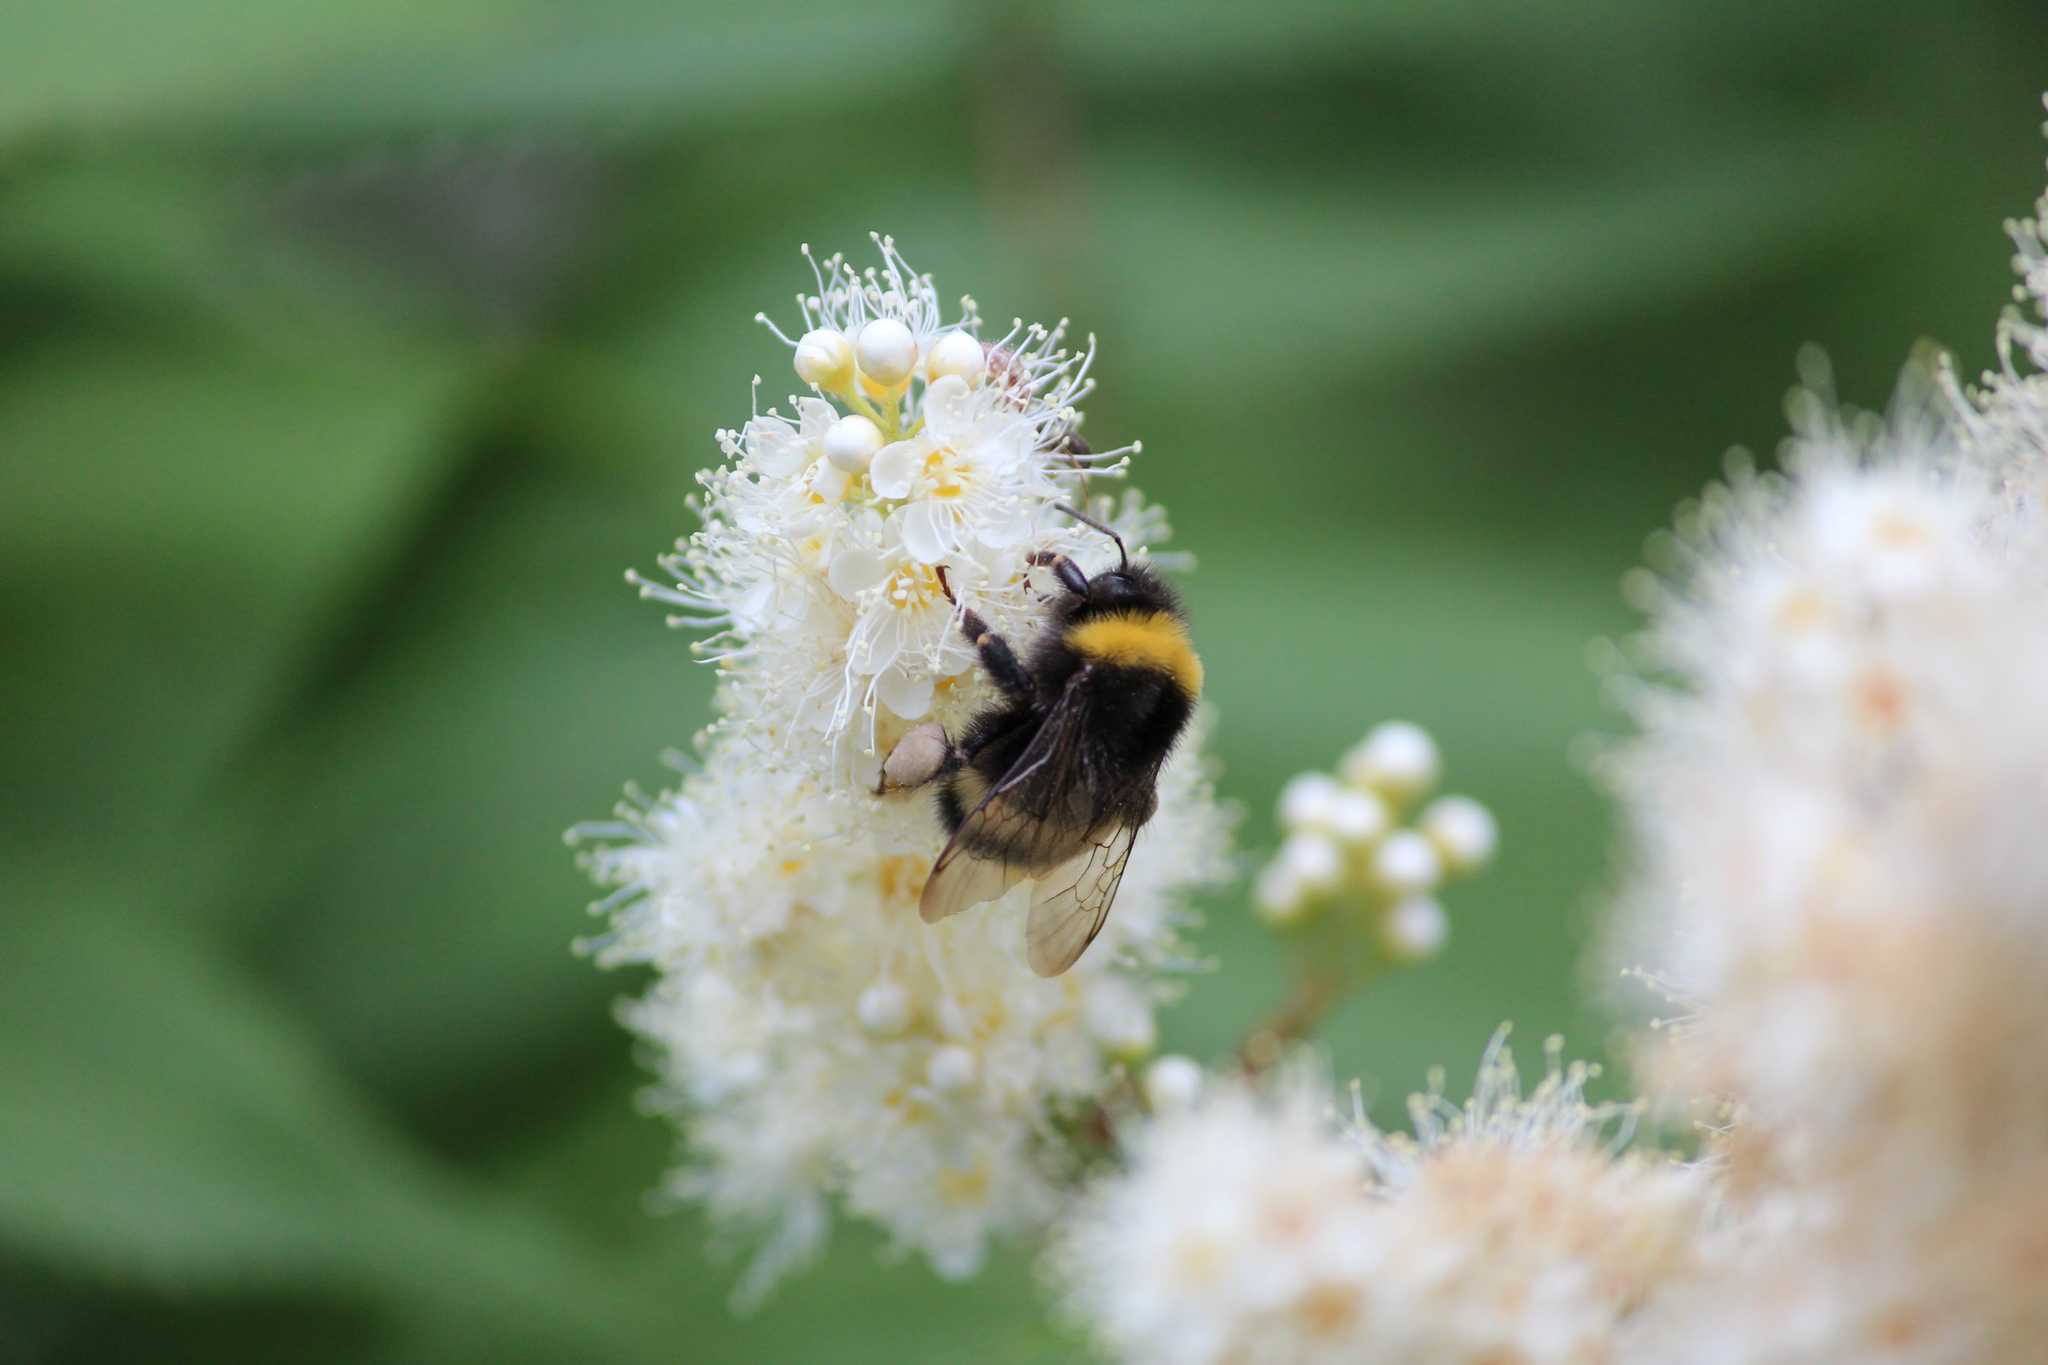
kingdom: Animalia
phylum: Arthropoda
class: Insecta
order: Hymenoptera
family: Apidae
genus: Bombus
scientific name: Bombus
